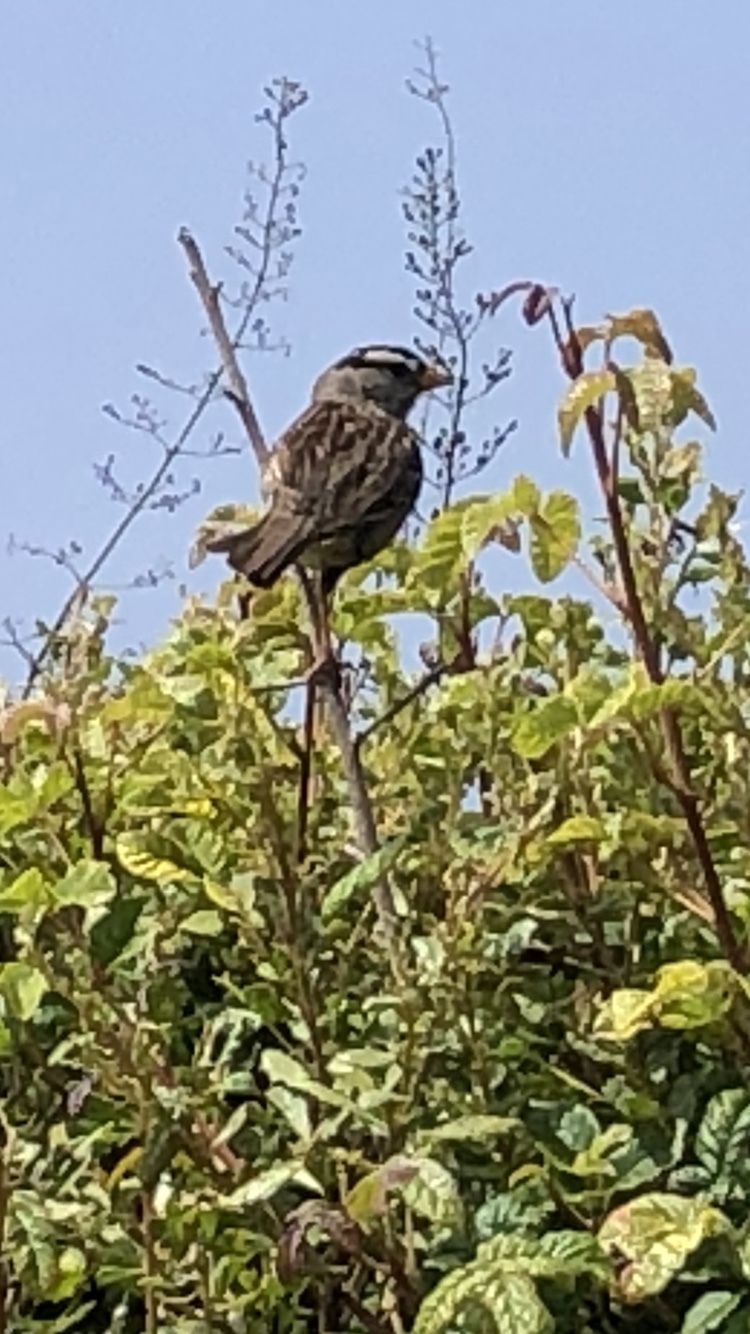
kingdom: Animalia
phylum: Chordata
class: Aves
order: Passeriformes
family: Passerellidae
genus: Zonotrichia
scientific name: Zonotrichia leucophrys
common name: White-crowned sparrow
